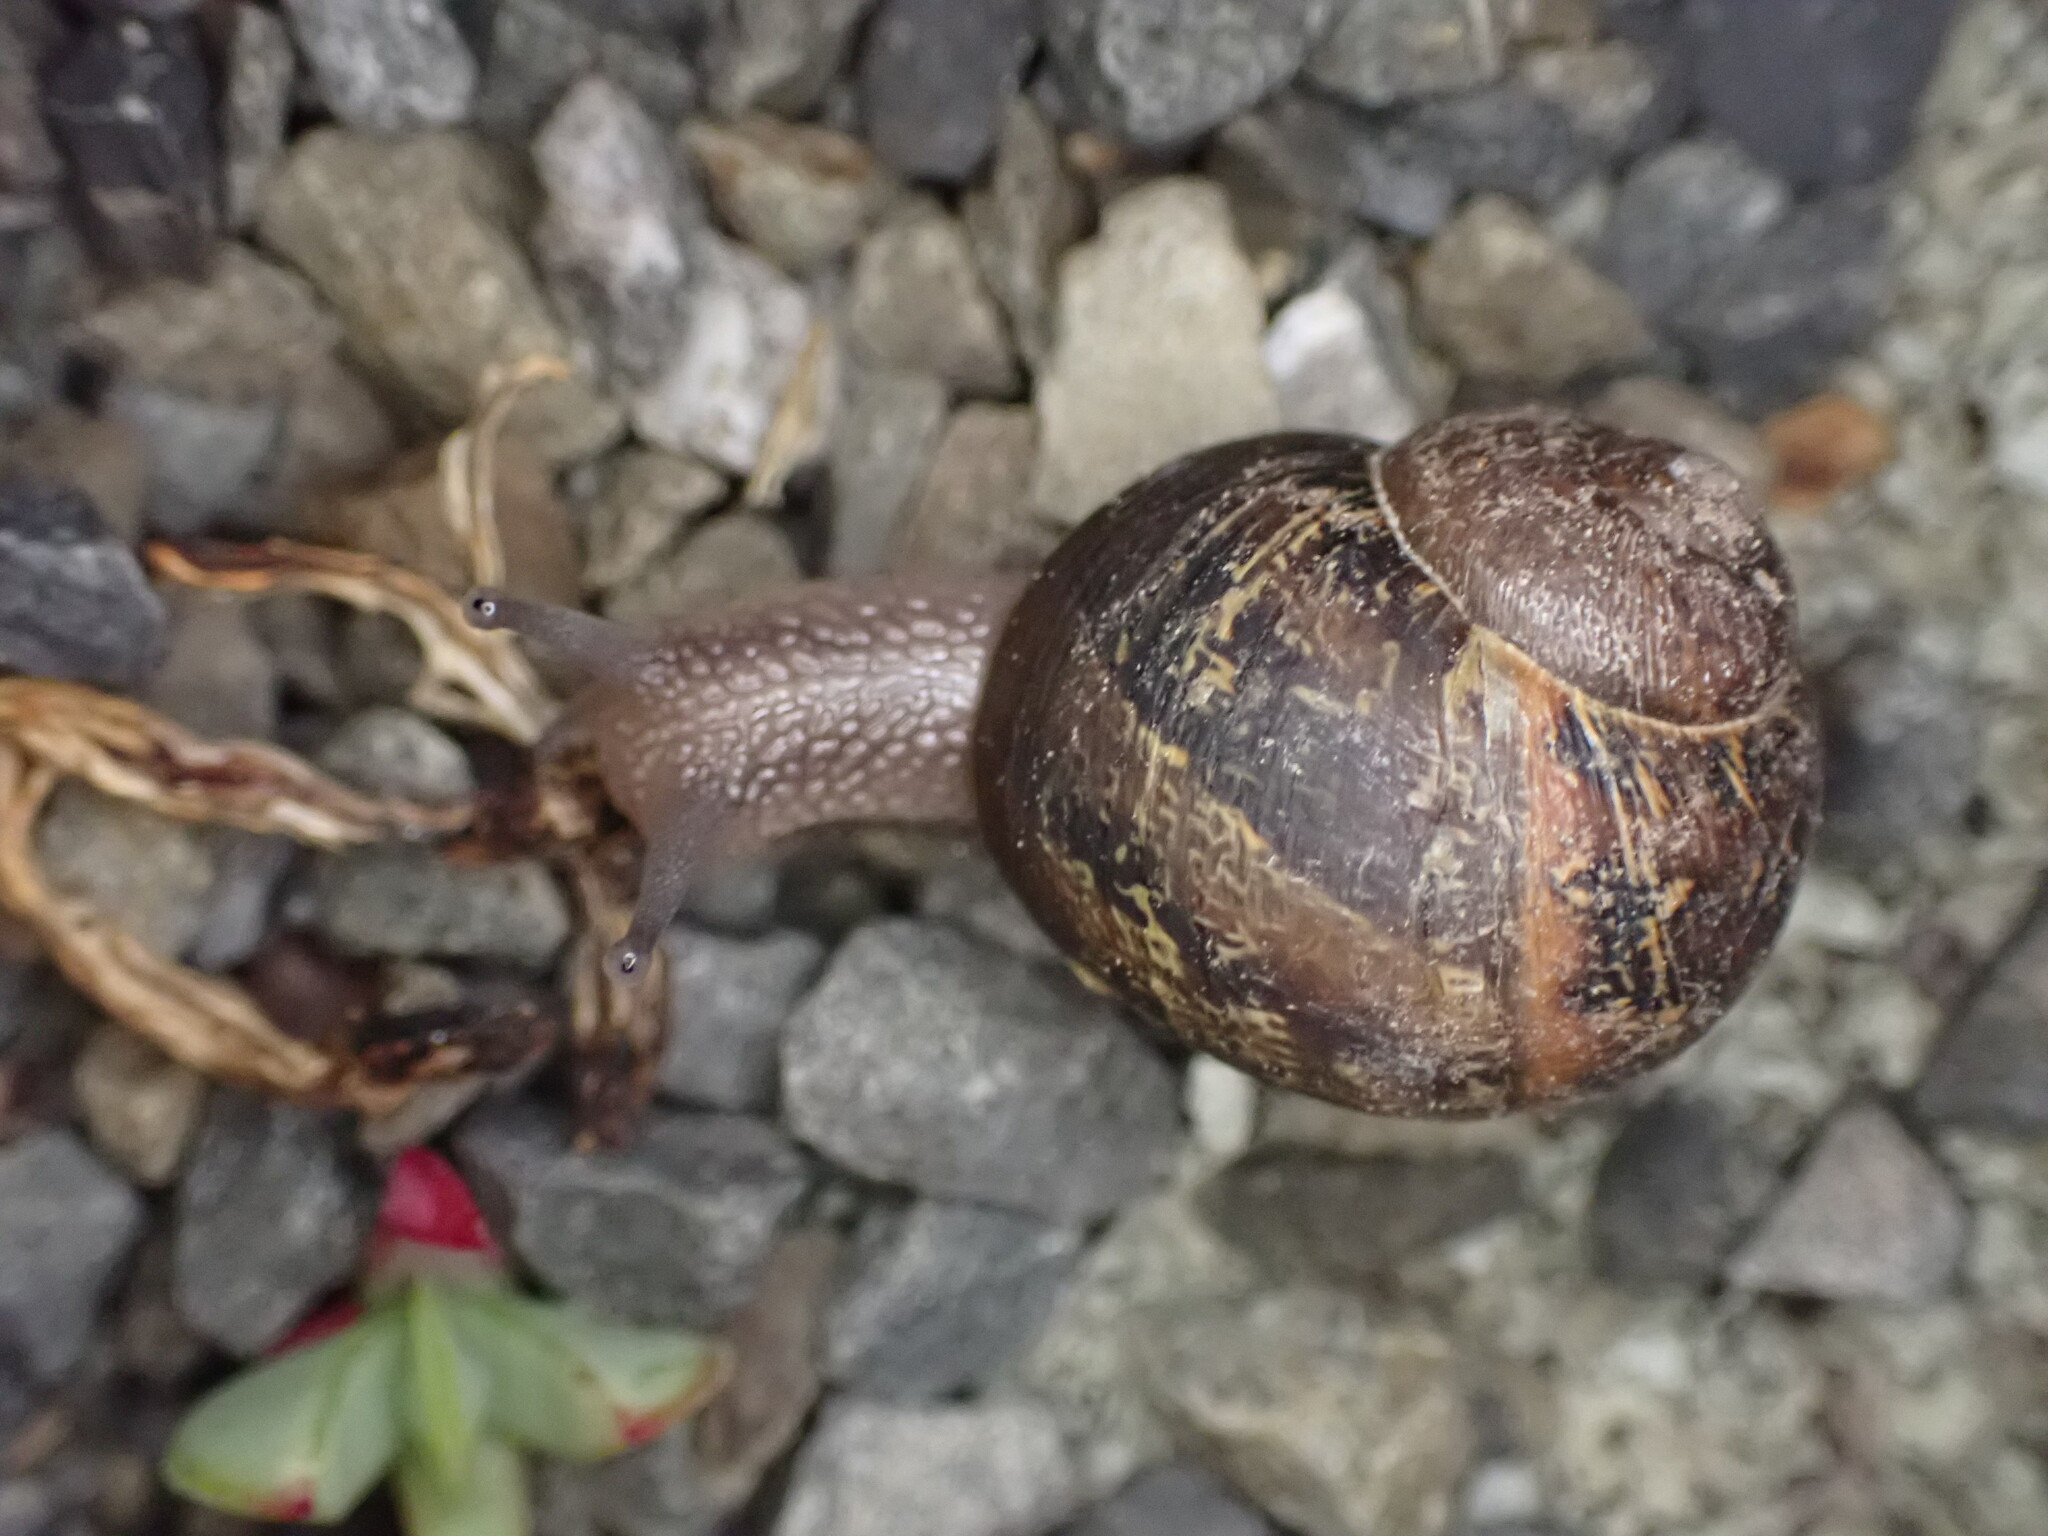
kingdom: Animalia
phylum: Mollusca
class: Gastropoda
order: Stylommatophora
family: Helicidae
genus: Cornu
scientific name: Cornu aspersum
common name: Brown garden snail
